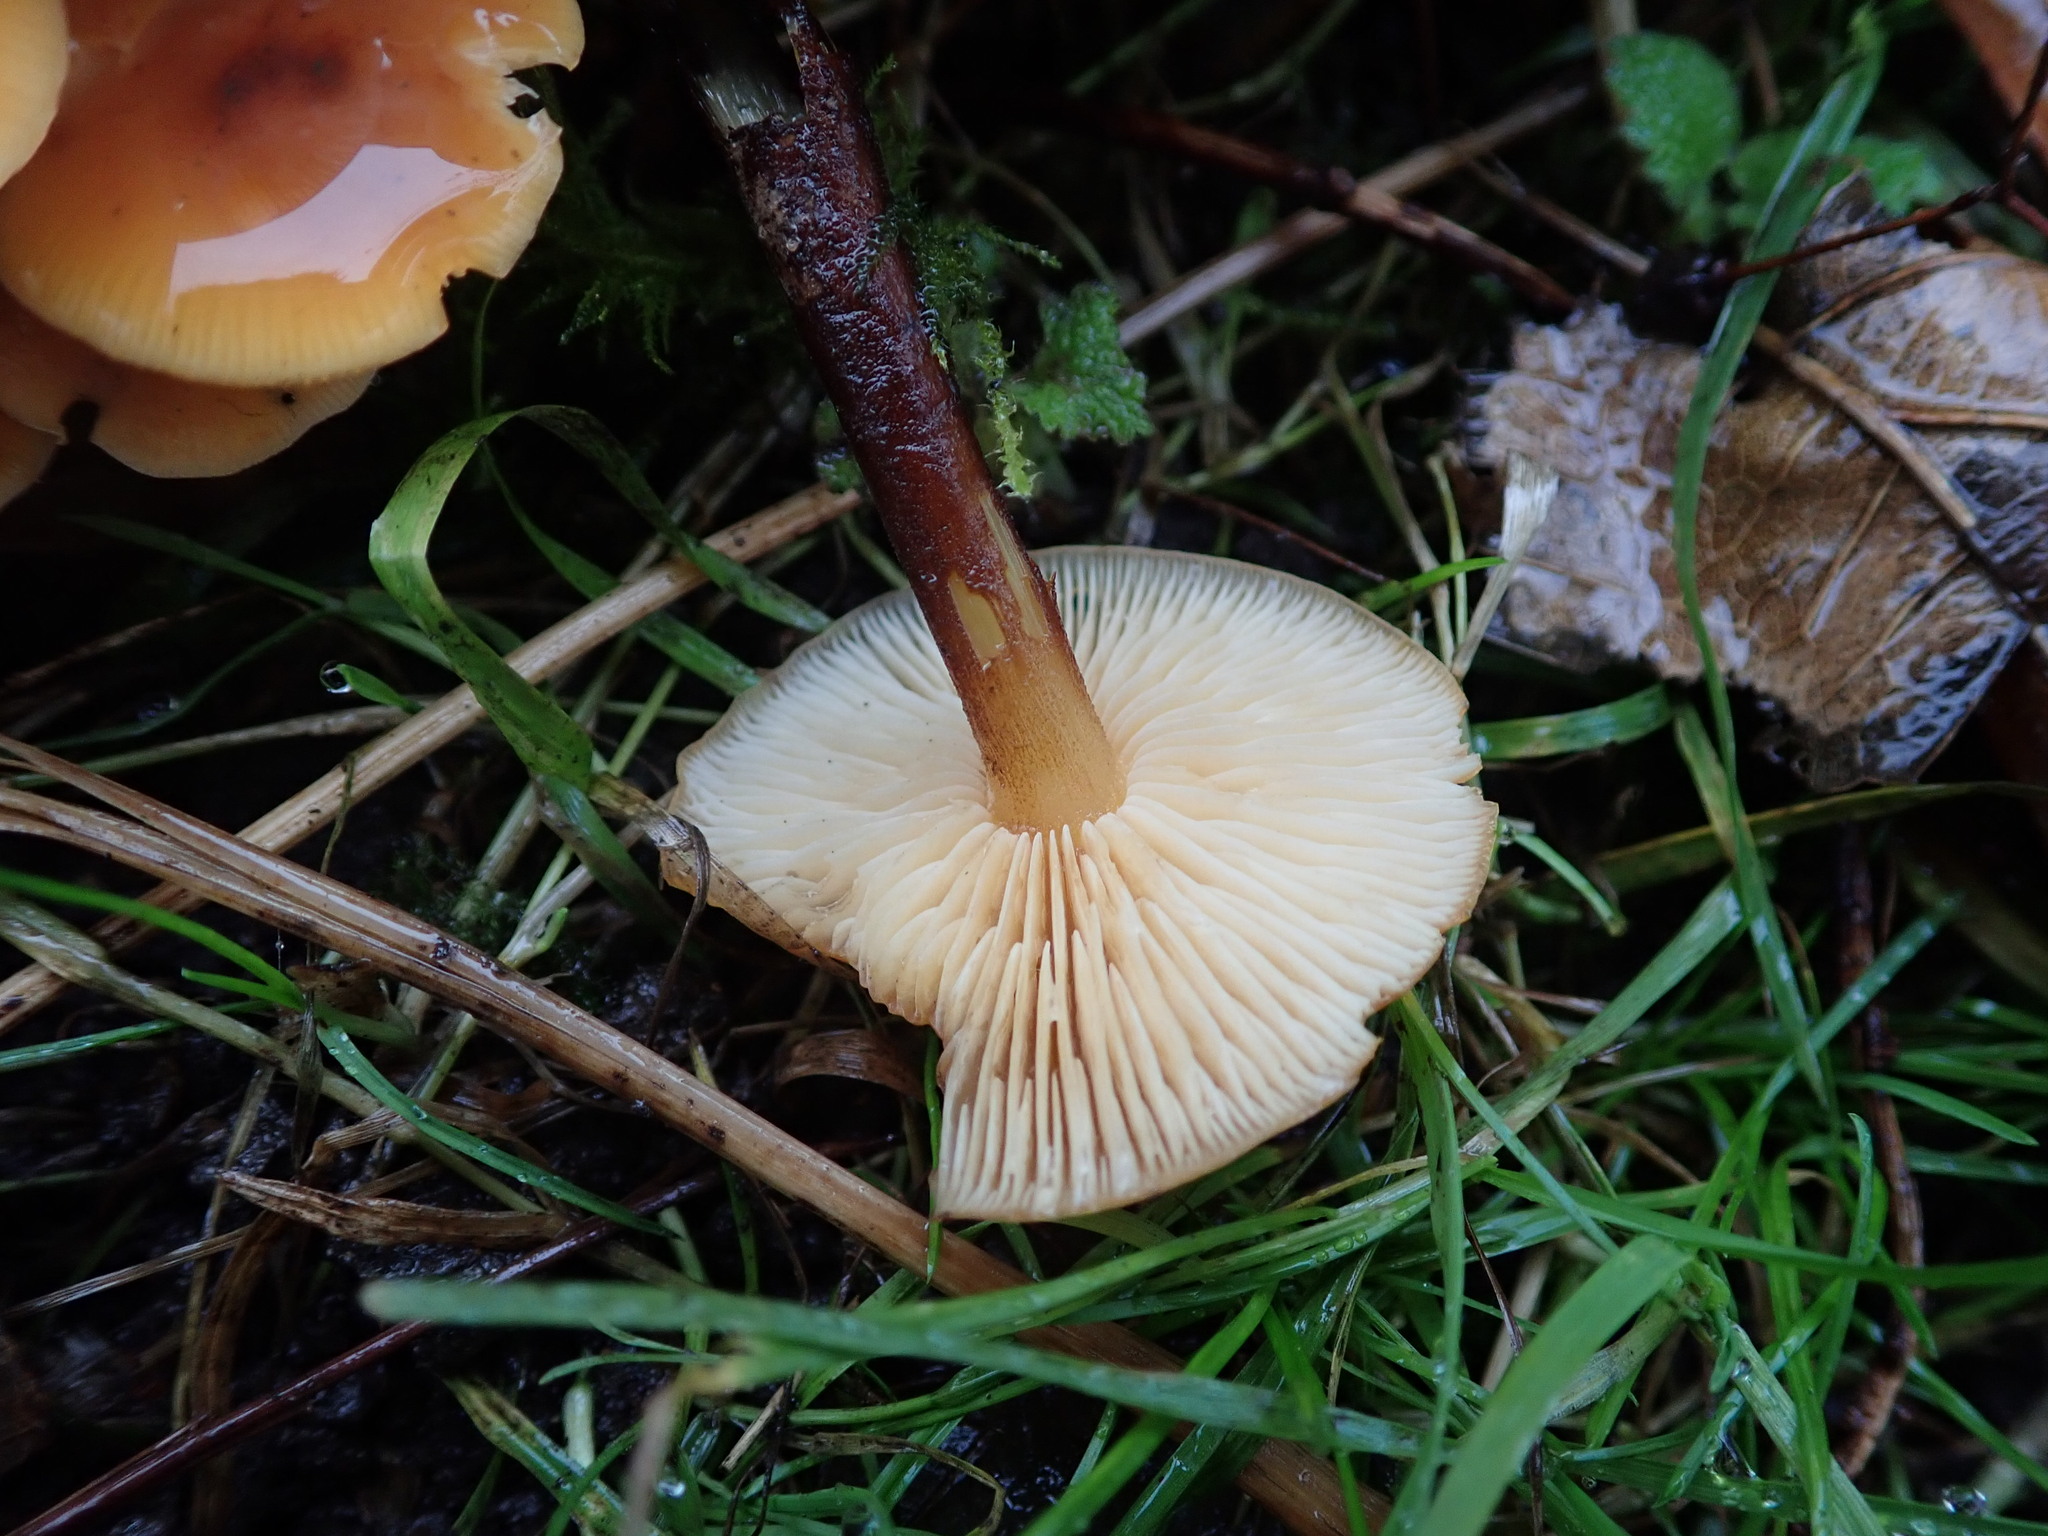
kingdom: Fungi
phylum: Basidiomycota
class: Agaricomycetes
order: Agaricales
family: Physalacriaceae
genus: Flammulina
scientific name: Flammulina
